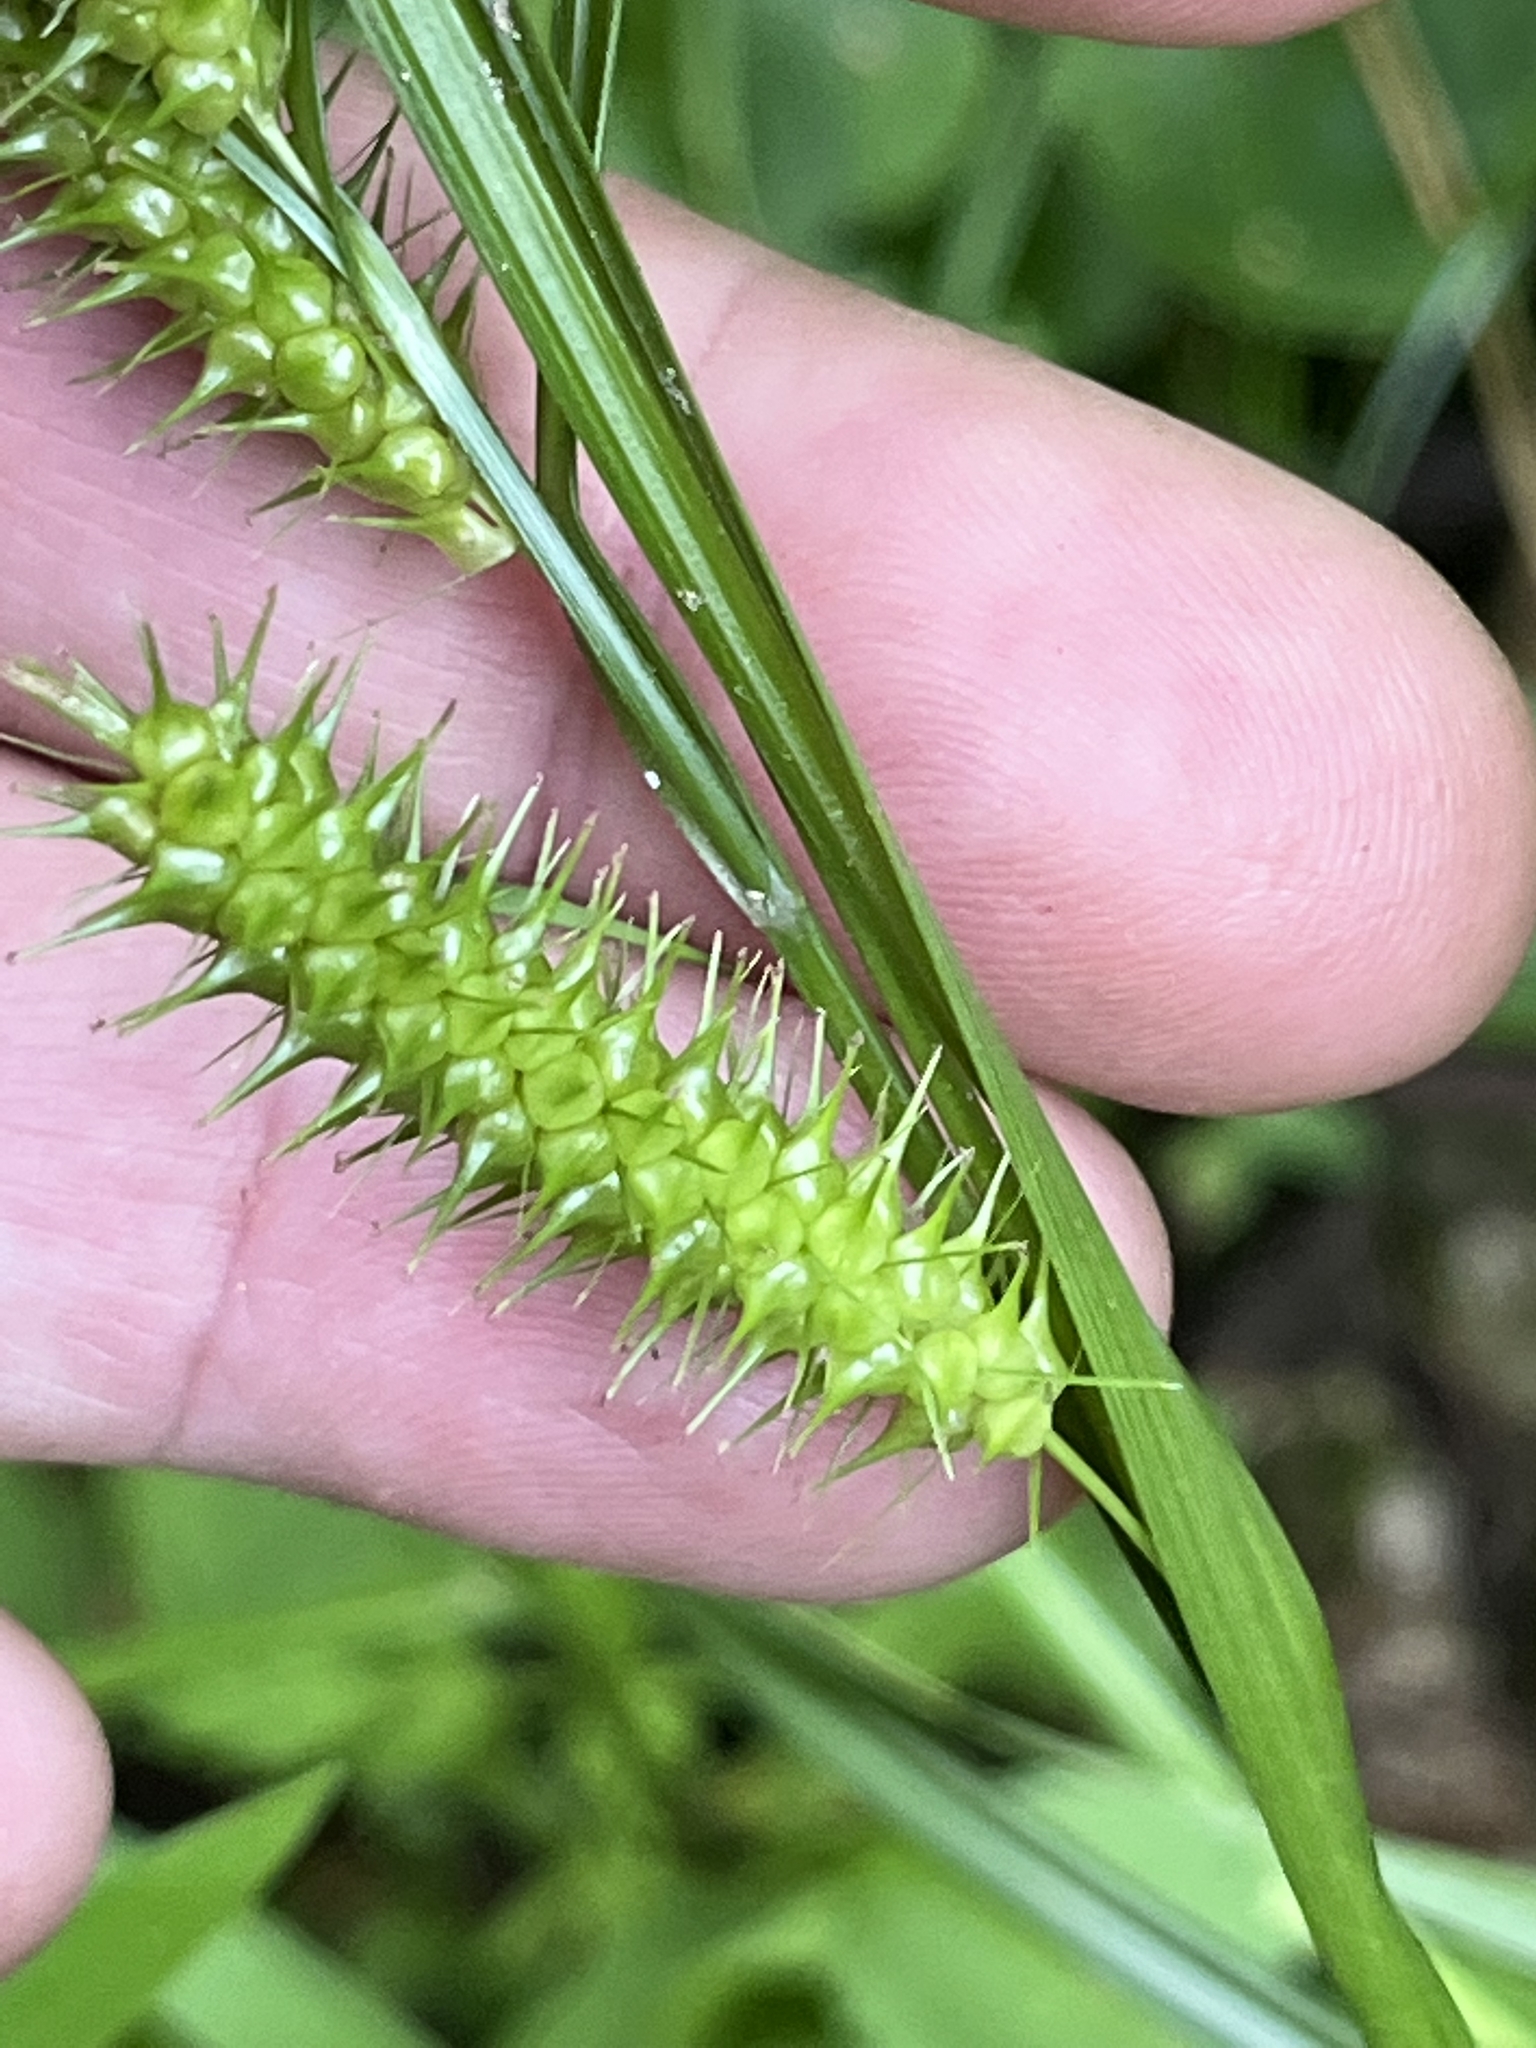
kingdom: Plantae
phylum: Tracheophyta
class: Liliopsida
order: Poales
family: Cyperaceae
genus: Carex
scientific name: Carex baileyi
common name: Bailey's sedge
